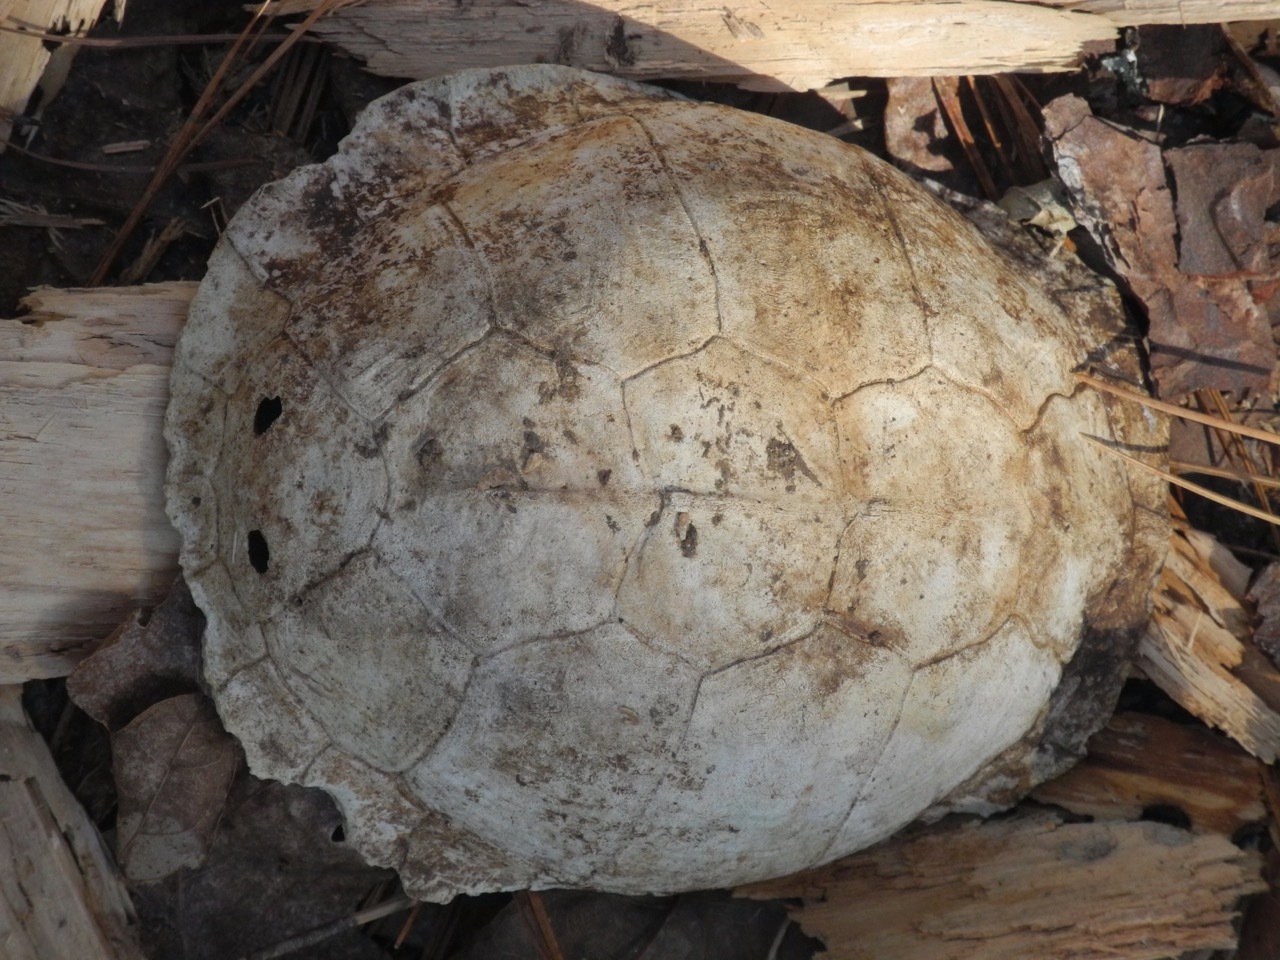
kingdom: Animalia
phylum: Chordata
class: Testudines
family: Emydidae
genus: Terrapene
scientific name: Terrapene carolina
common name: Common box turtle
